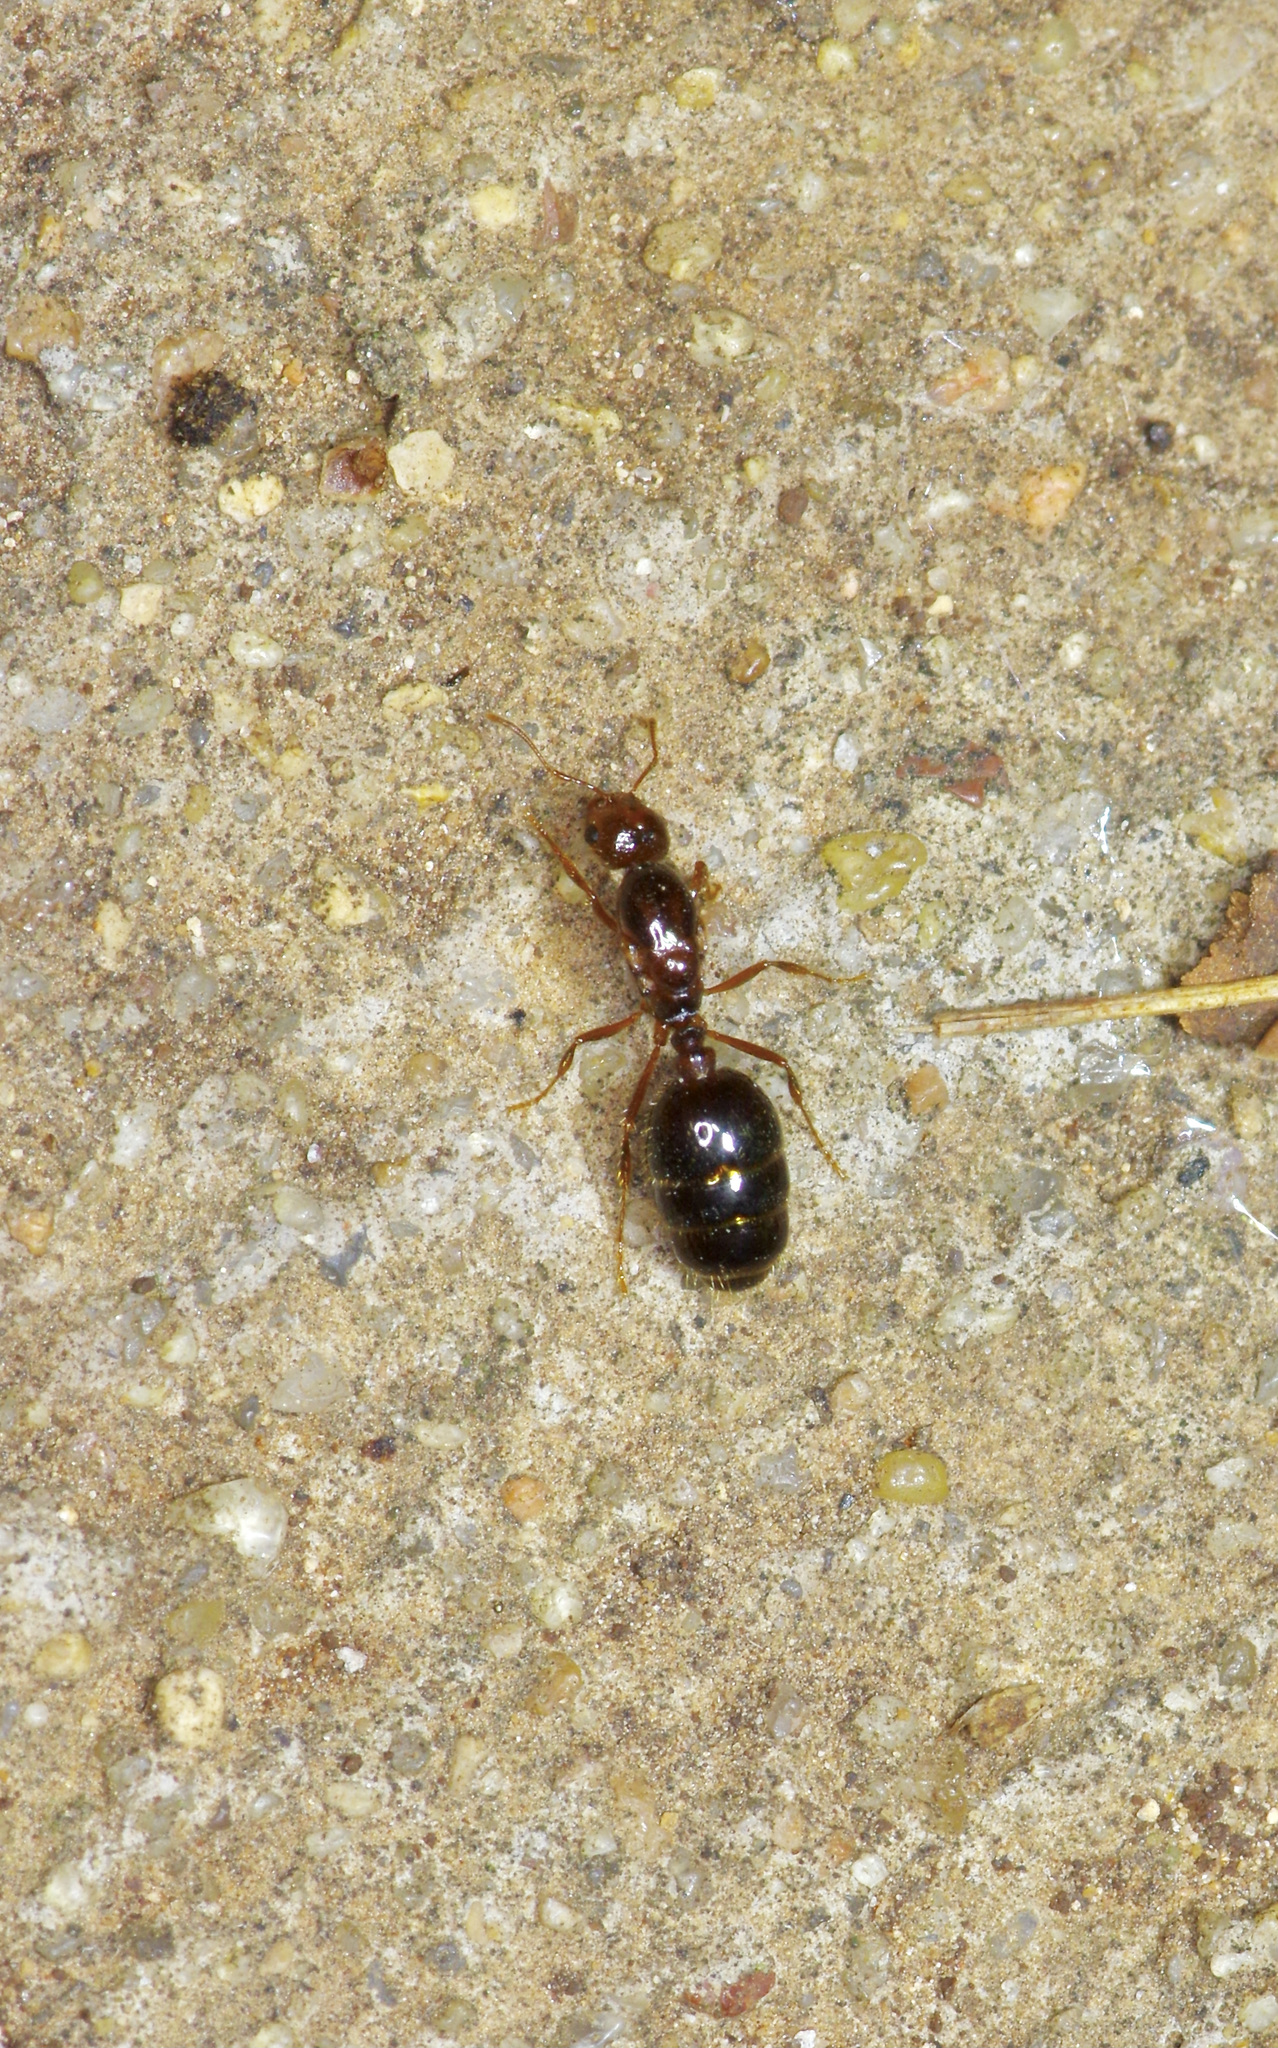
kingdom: Animalia
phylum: Arthropoda
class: Insecta
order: Hymenoptera
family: Formicidae
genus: Solenopsis
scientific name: Solenopsis invicta
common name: Red imported fire ant
